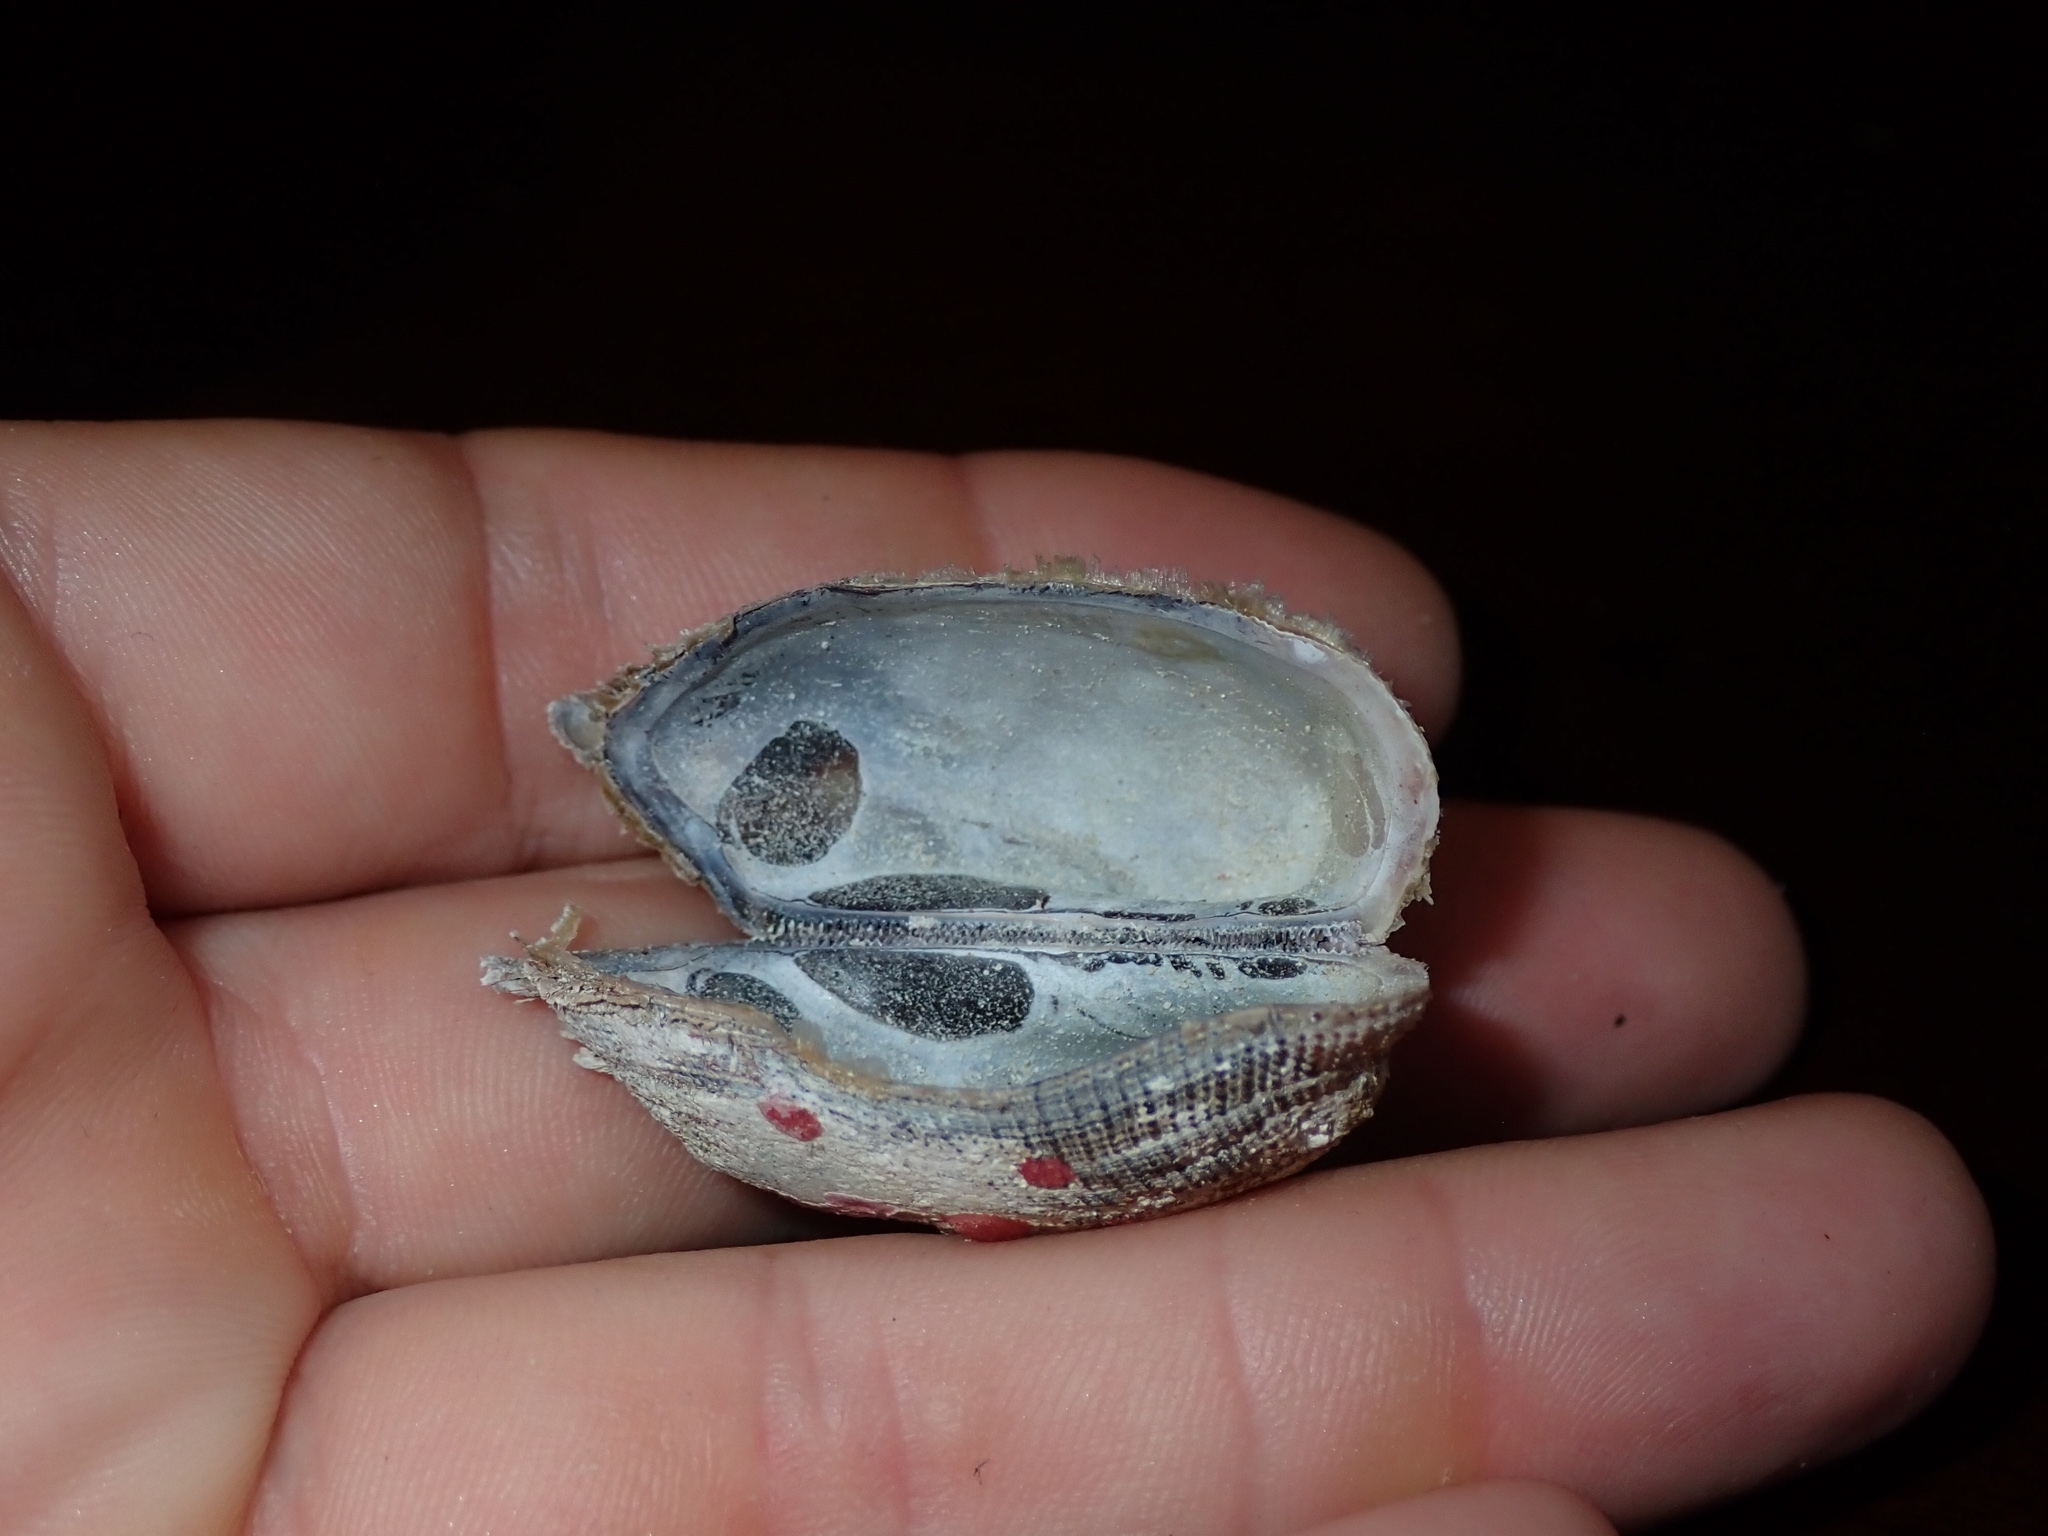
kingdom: Animalia
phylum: Mollusca
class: Bivalvia
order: Arcida
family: Arcidae
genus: Lamarcka
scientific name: Lamarcka imbricata
